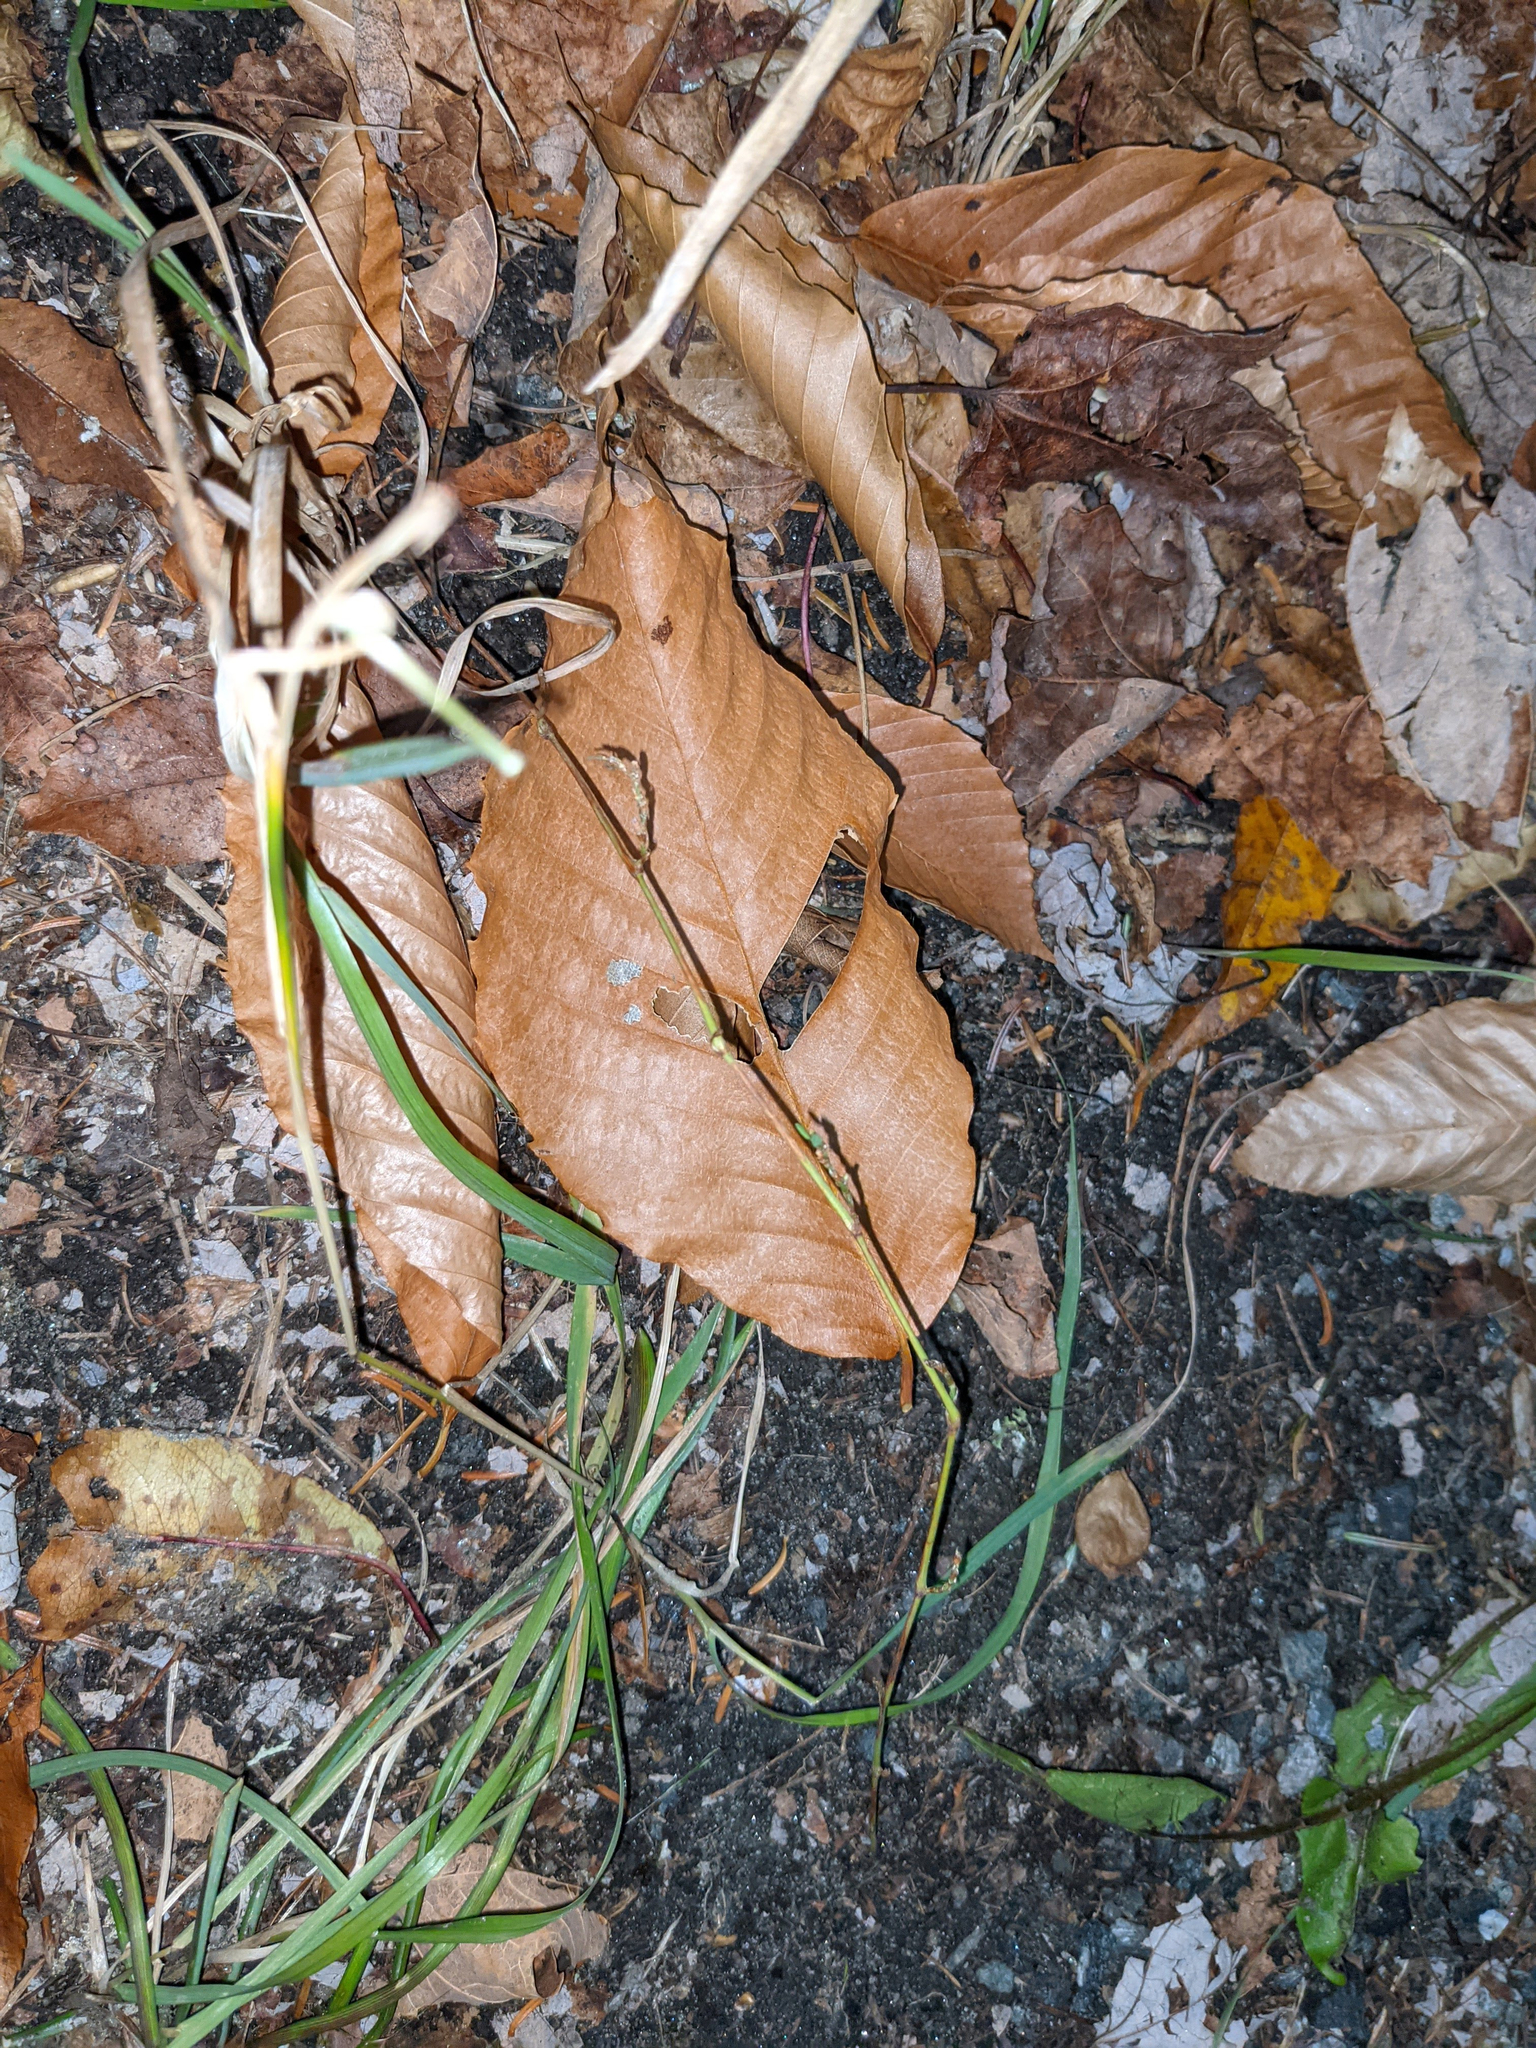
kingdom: Plantae
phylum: Tracheophyta
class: Magnoliopsida
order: Fagales
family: Fagaceae
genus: Fagus
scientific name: Fagus grandifolia
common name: American beech
